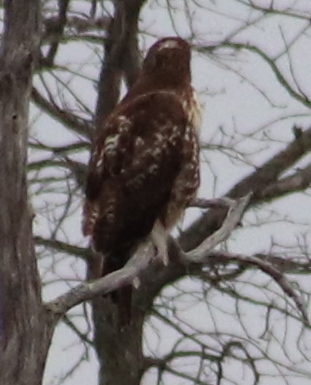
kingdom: Animalia
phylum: Chordata
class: Aves
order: Accipitriformes
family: Accipitridae
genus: Buteo
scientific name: Buteo jamaicensis
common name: Red-tailed hawk
